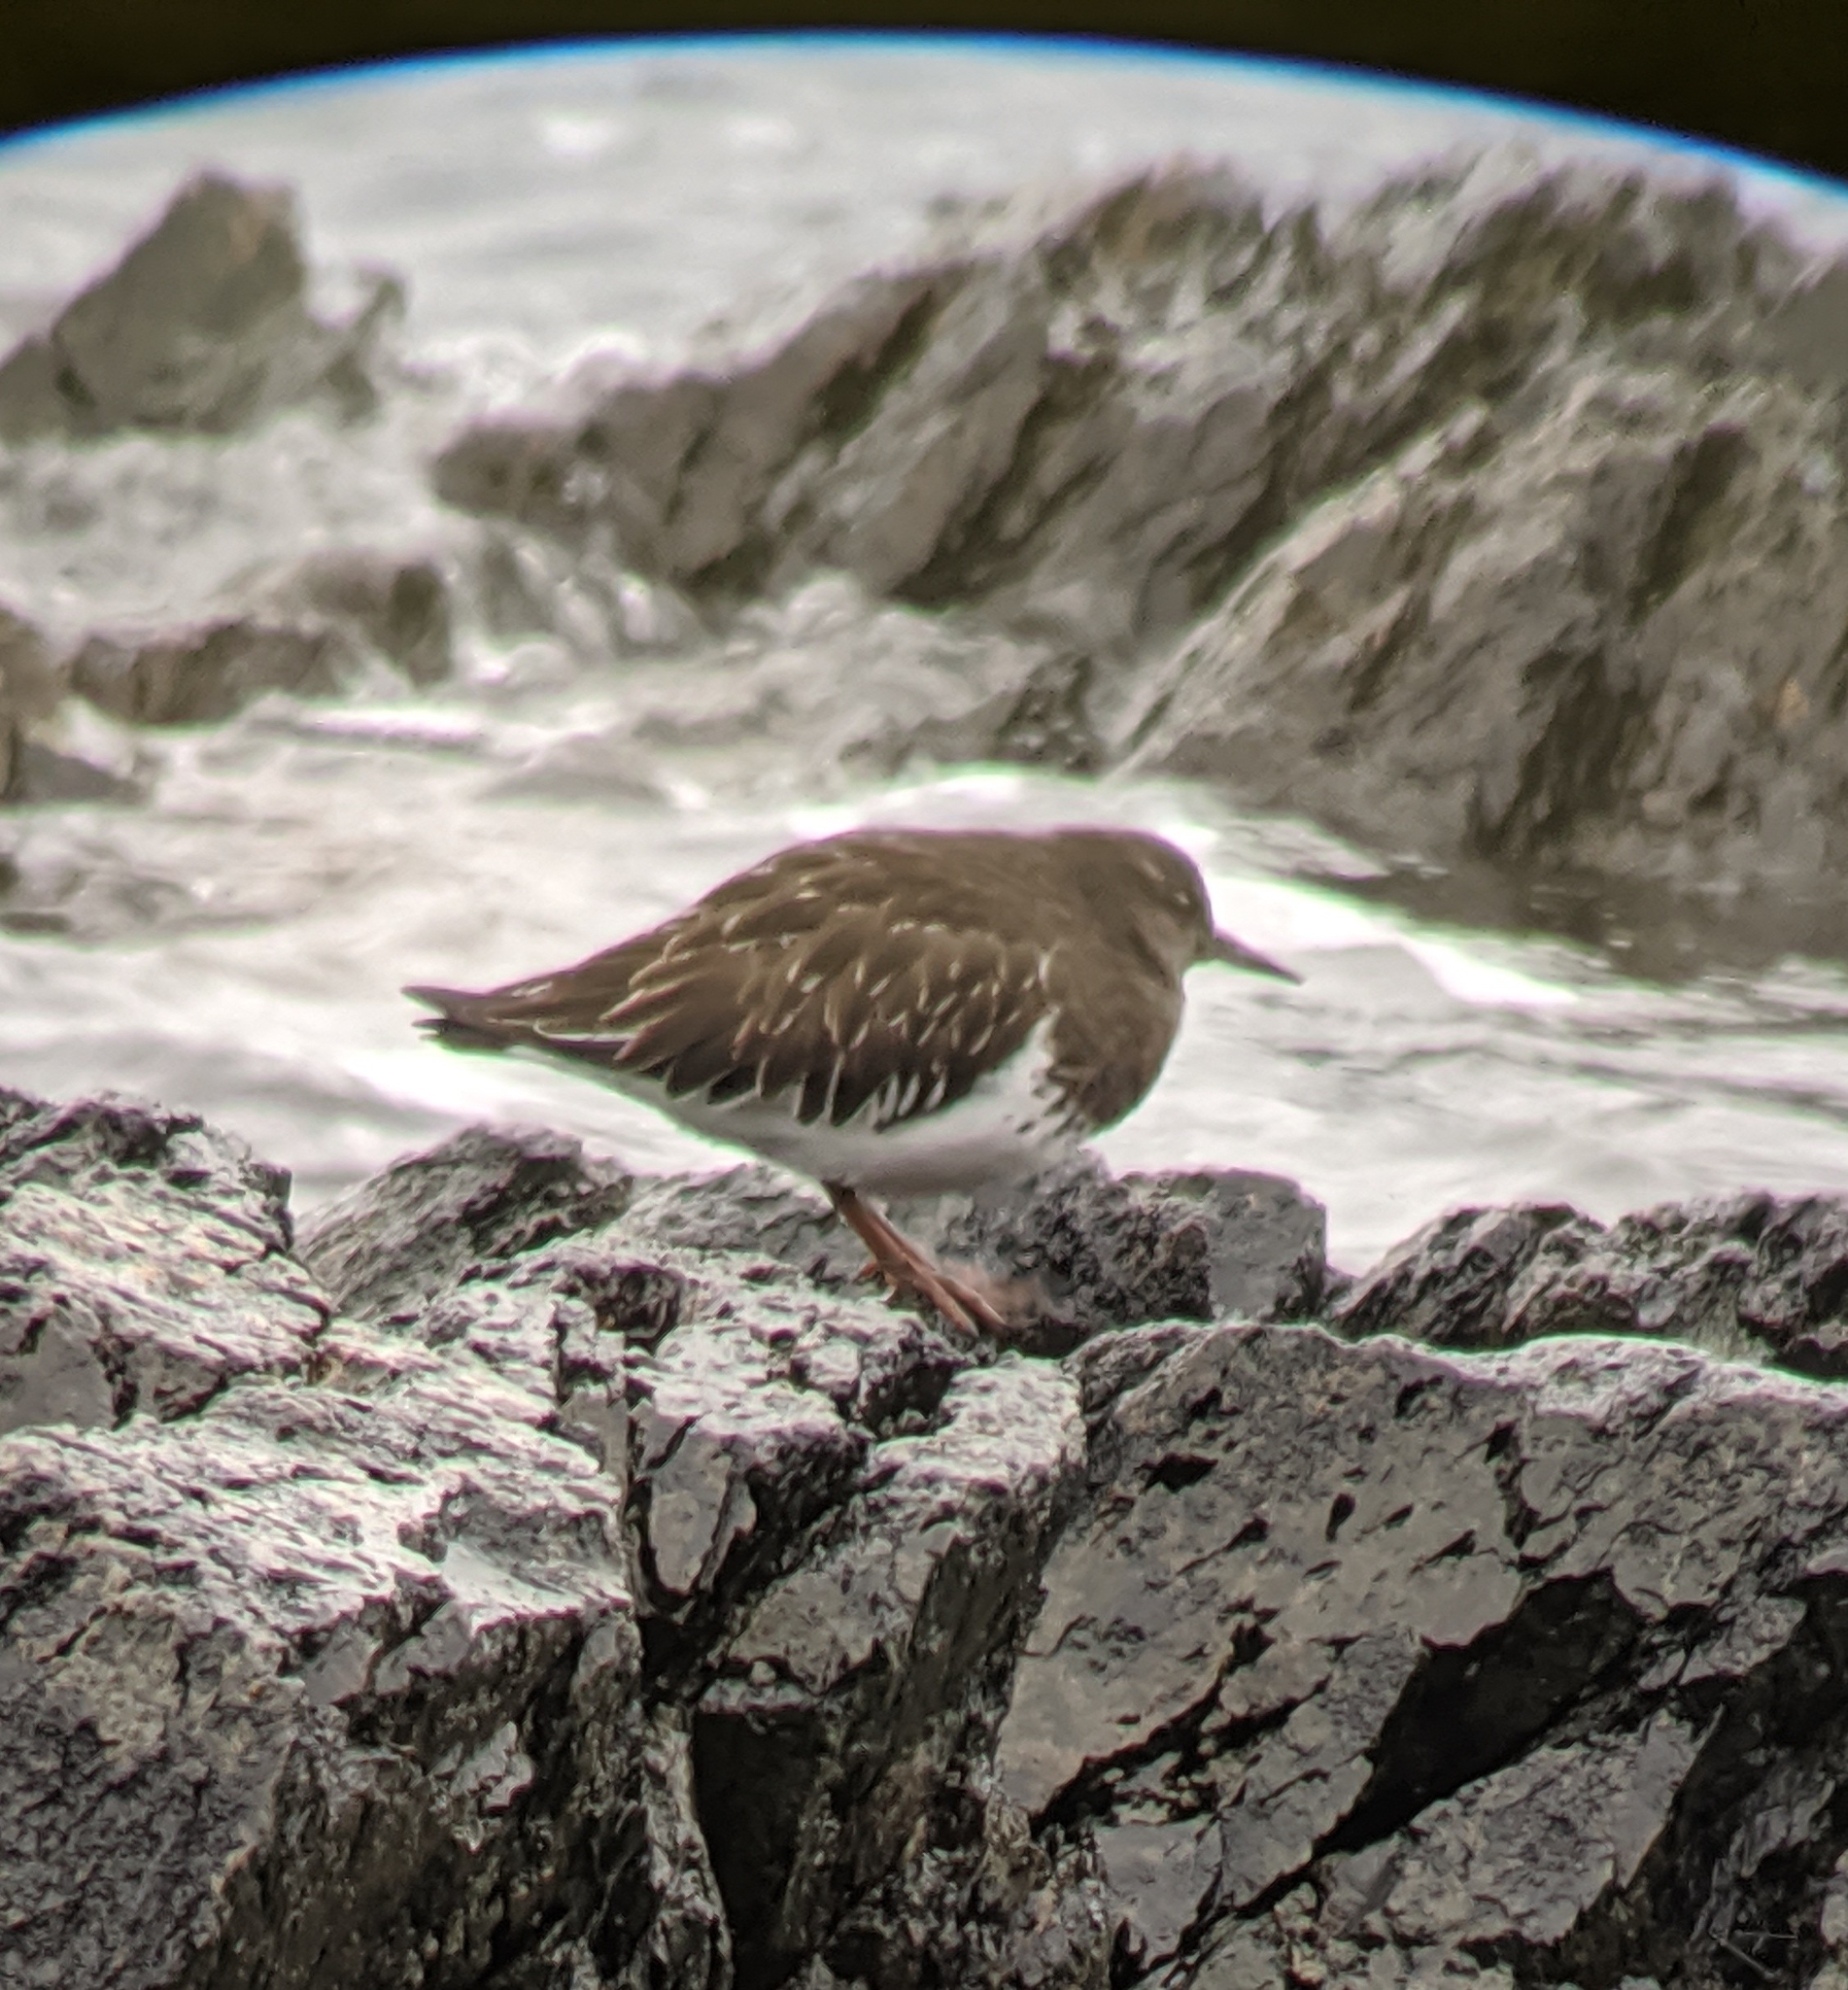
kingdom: Animalia
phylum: Chordata
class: Aves
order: Charadriiformes
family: Scolopacidae
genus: Arenaria
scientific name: Arenaria melanocephala
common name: Black turnstone
